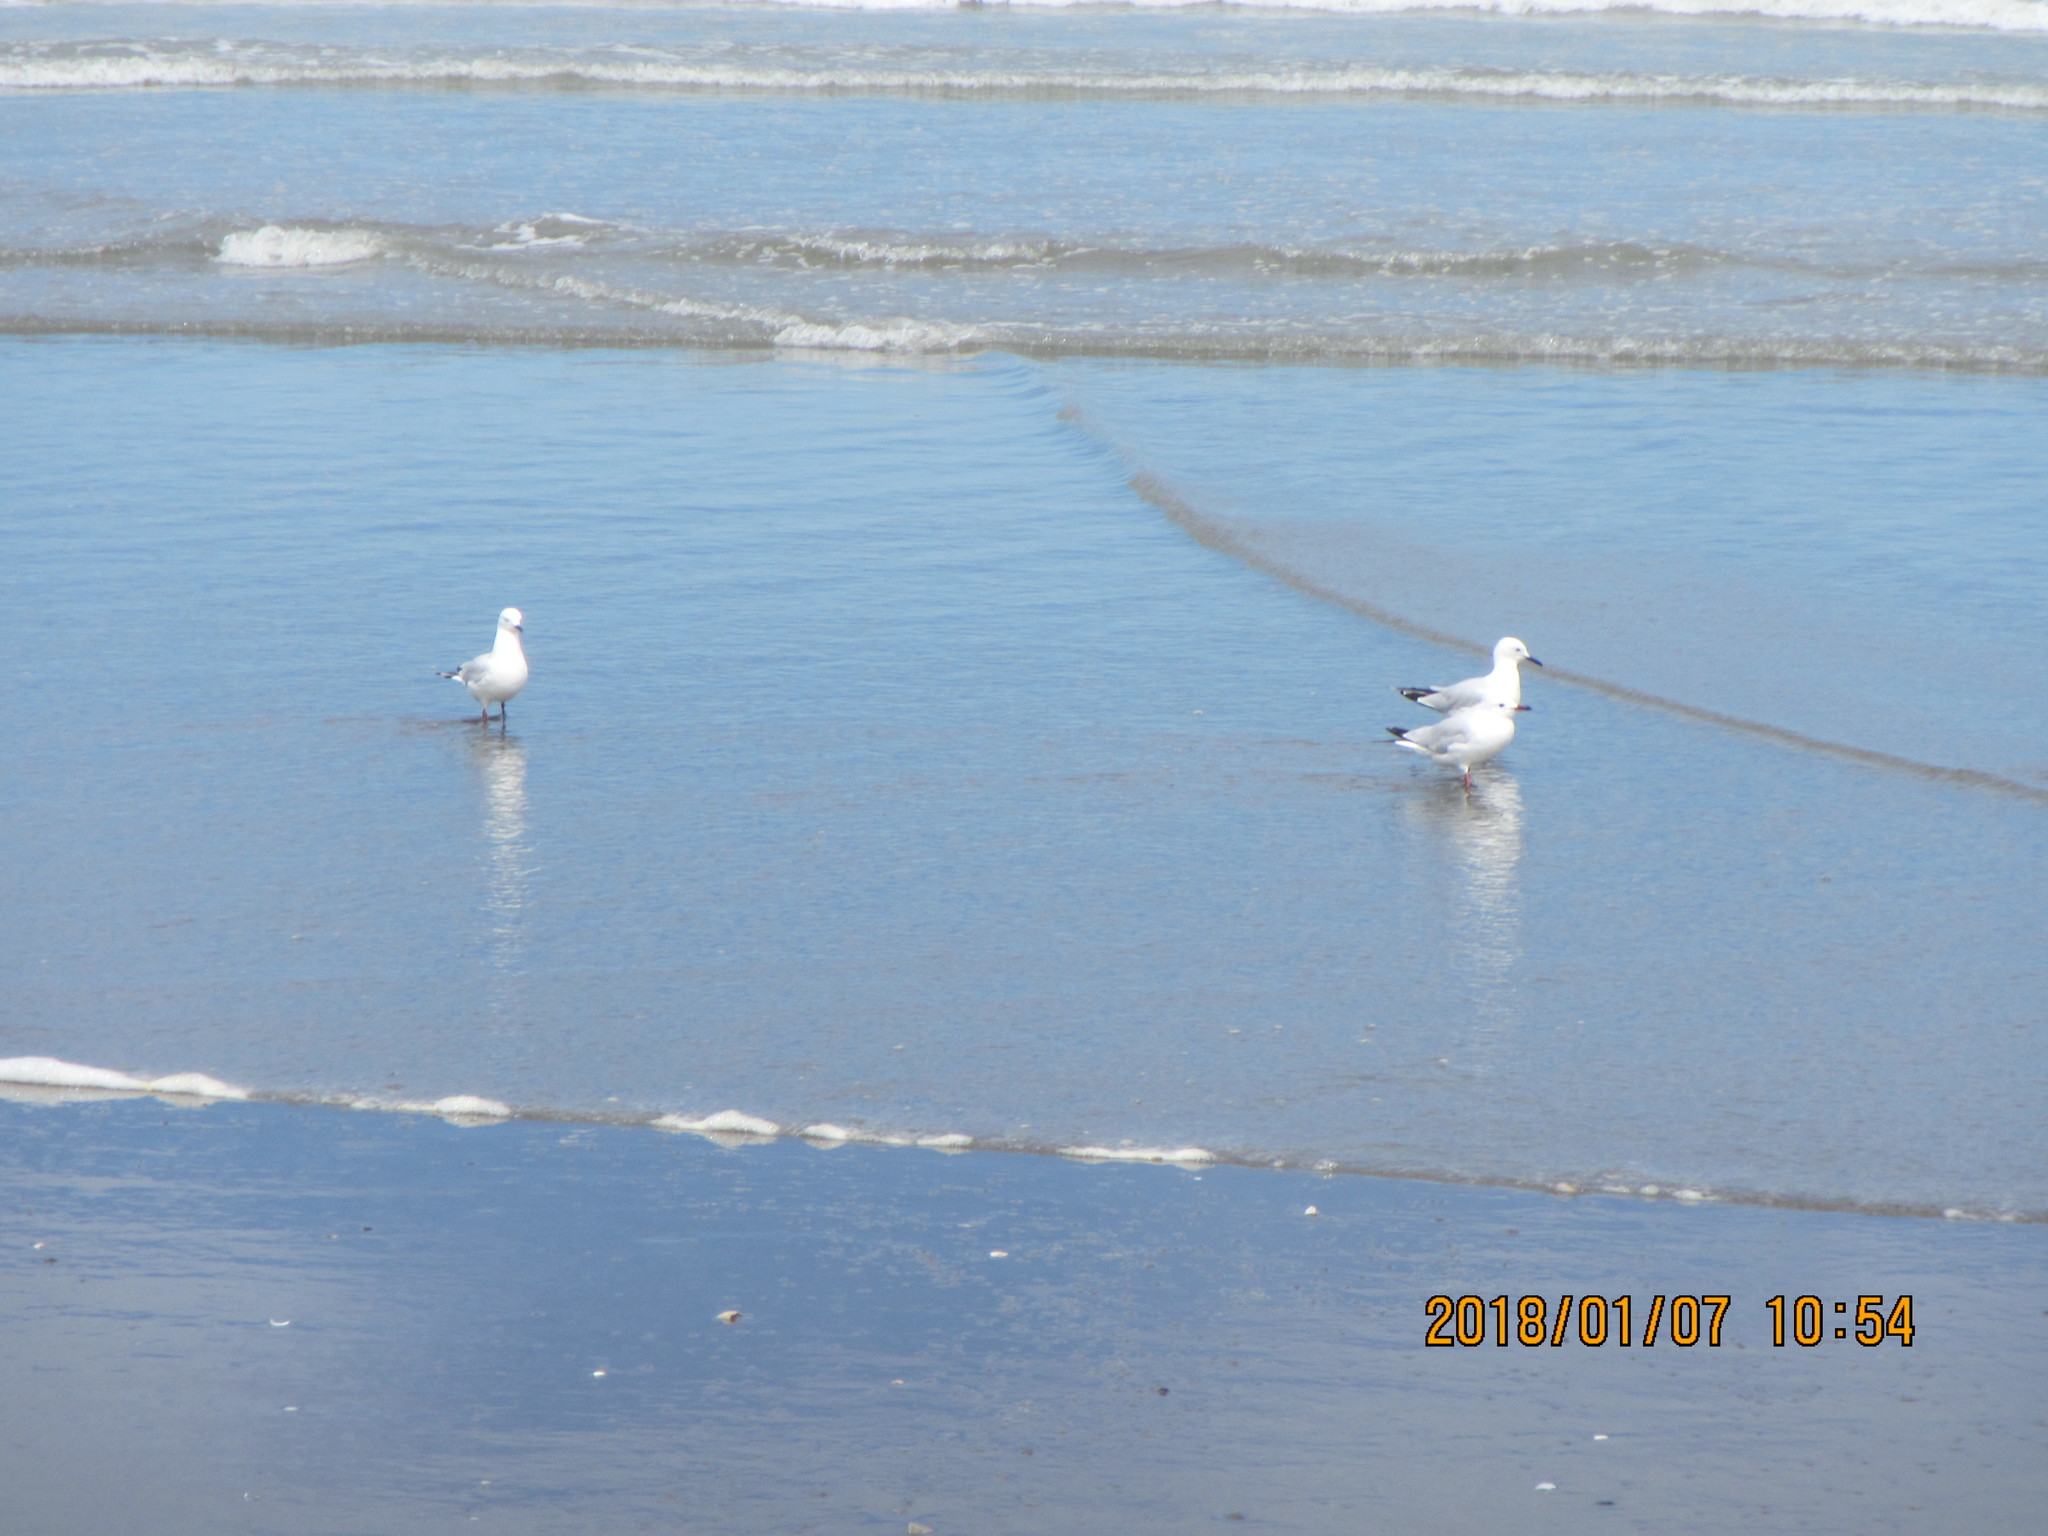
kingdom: Animalia
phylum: Chordata
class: Aves
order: Charadriiformes
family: Laridae
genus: Chroicocephalus
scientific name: Chroicocephalus bulleri
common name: Black-billed gull
